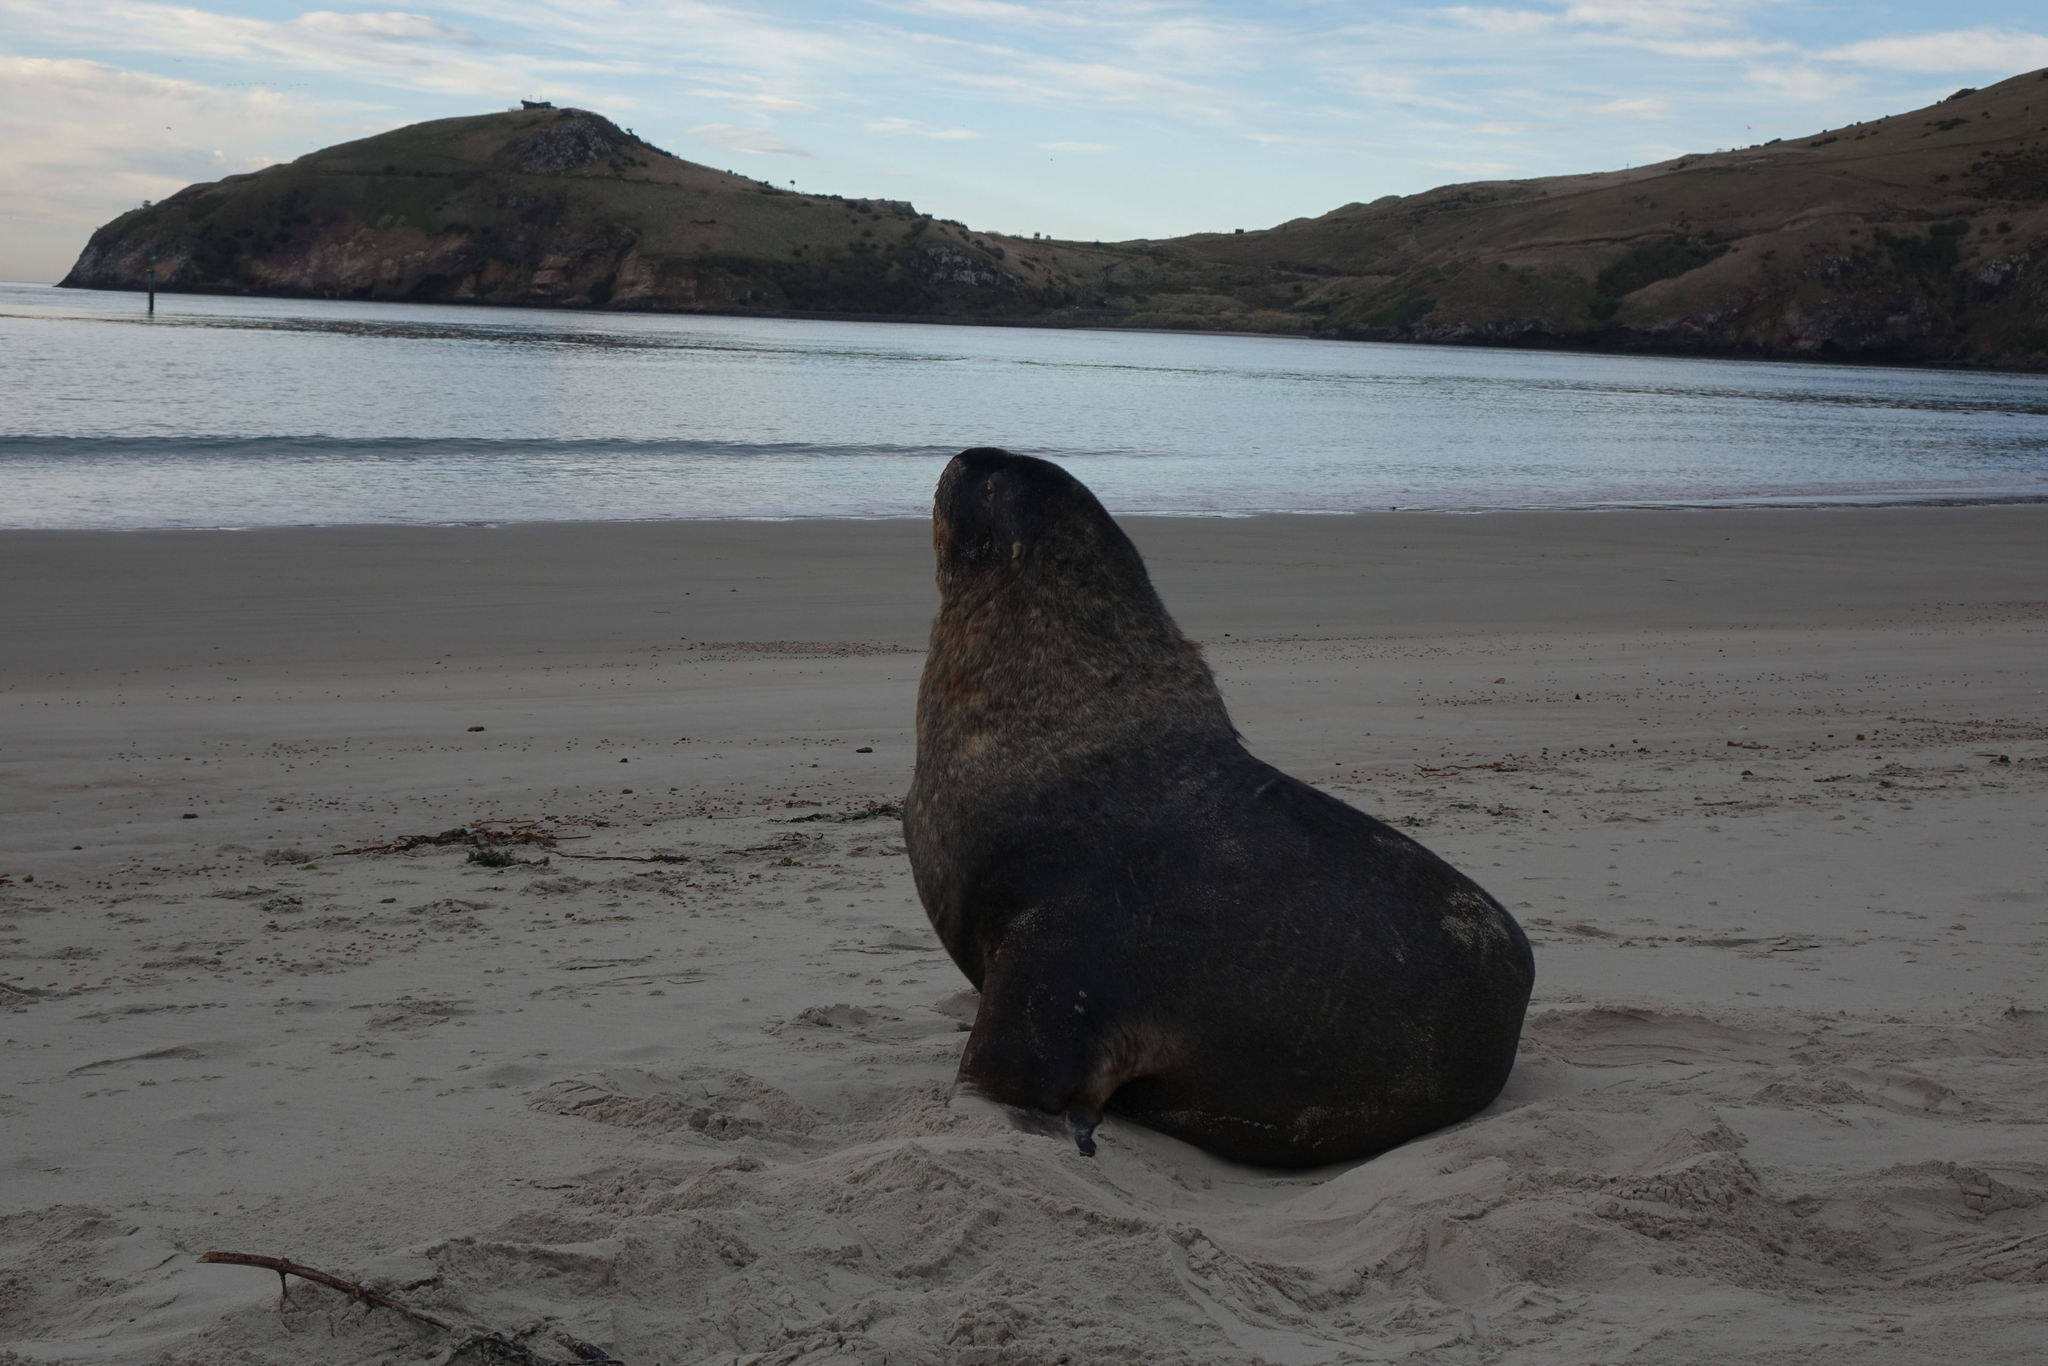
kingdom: Animalia
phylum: Chordata
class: Mammalia
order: Carnivora
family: Otariidae
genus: Phocarctos
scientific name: Phocarctos hookeri
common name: New zealand sea lion
